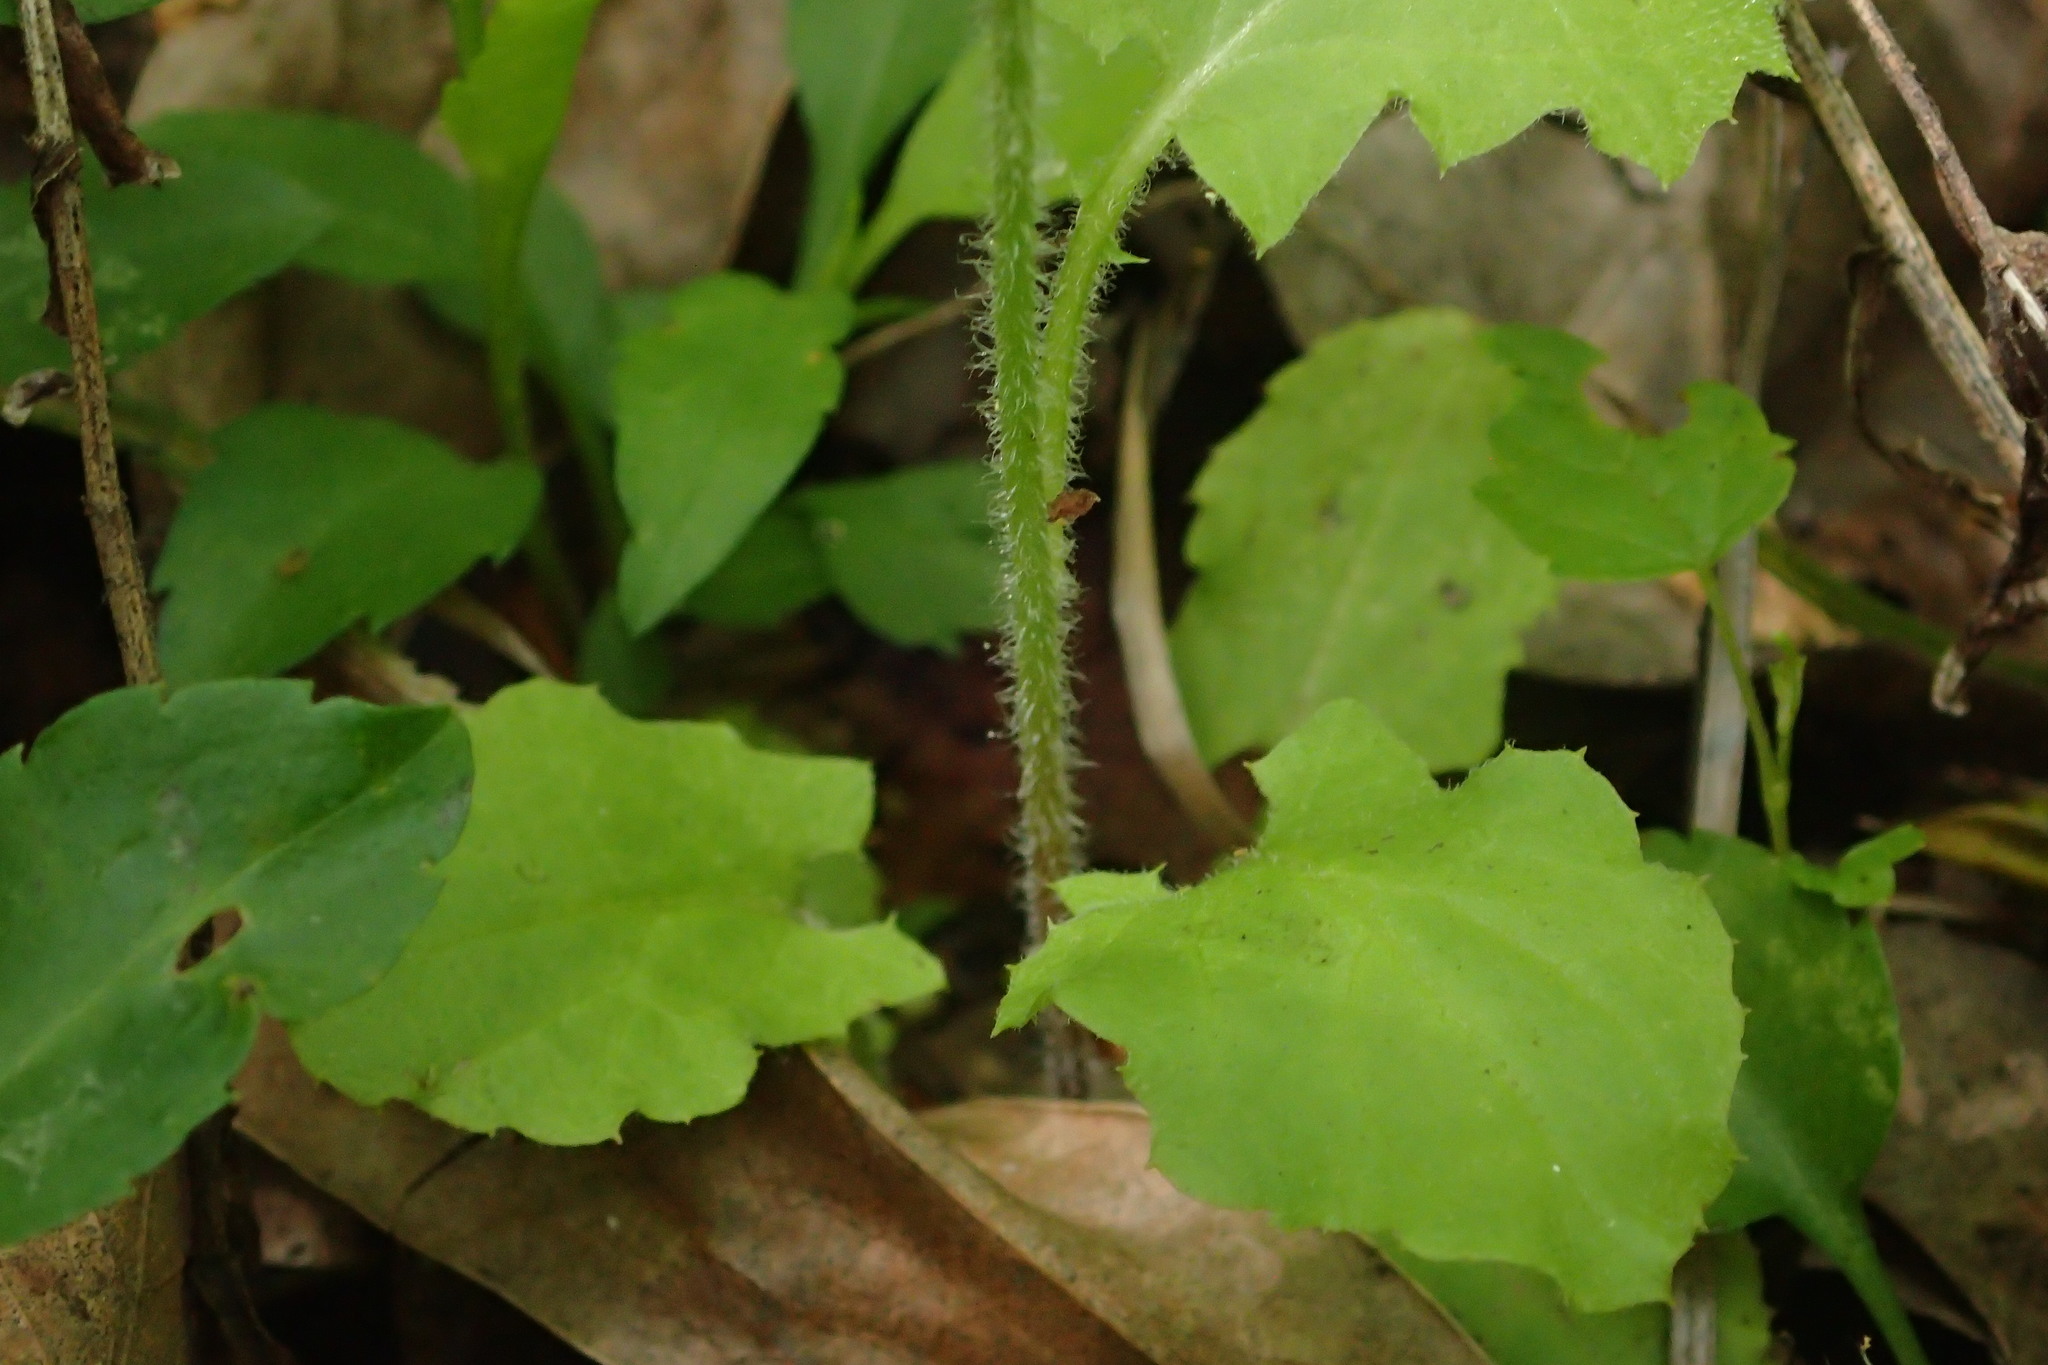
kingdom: Plantae
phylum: Tracheophyta
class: Magnoliopsida
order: Asterales
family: Asteraceae
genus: Youngia
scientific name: Youngia japonica
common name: Oriental false hawksbeard
